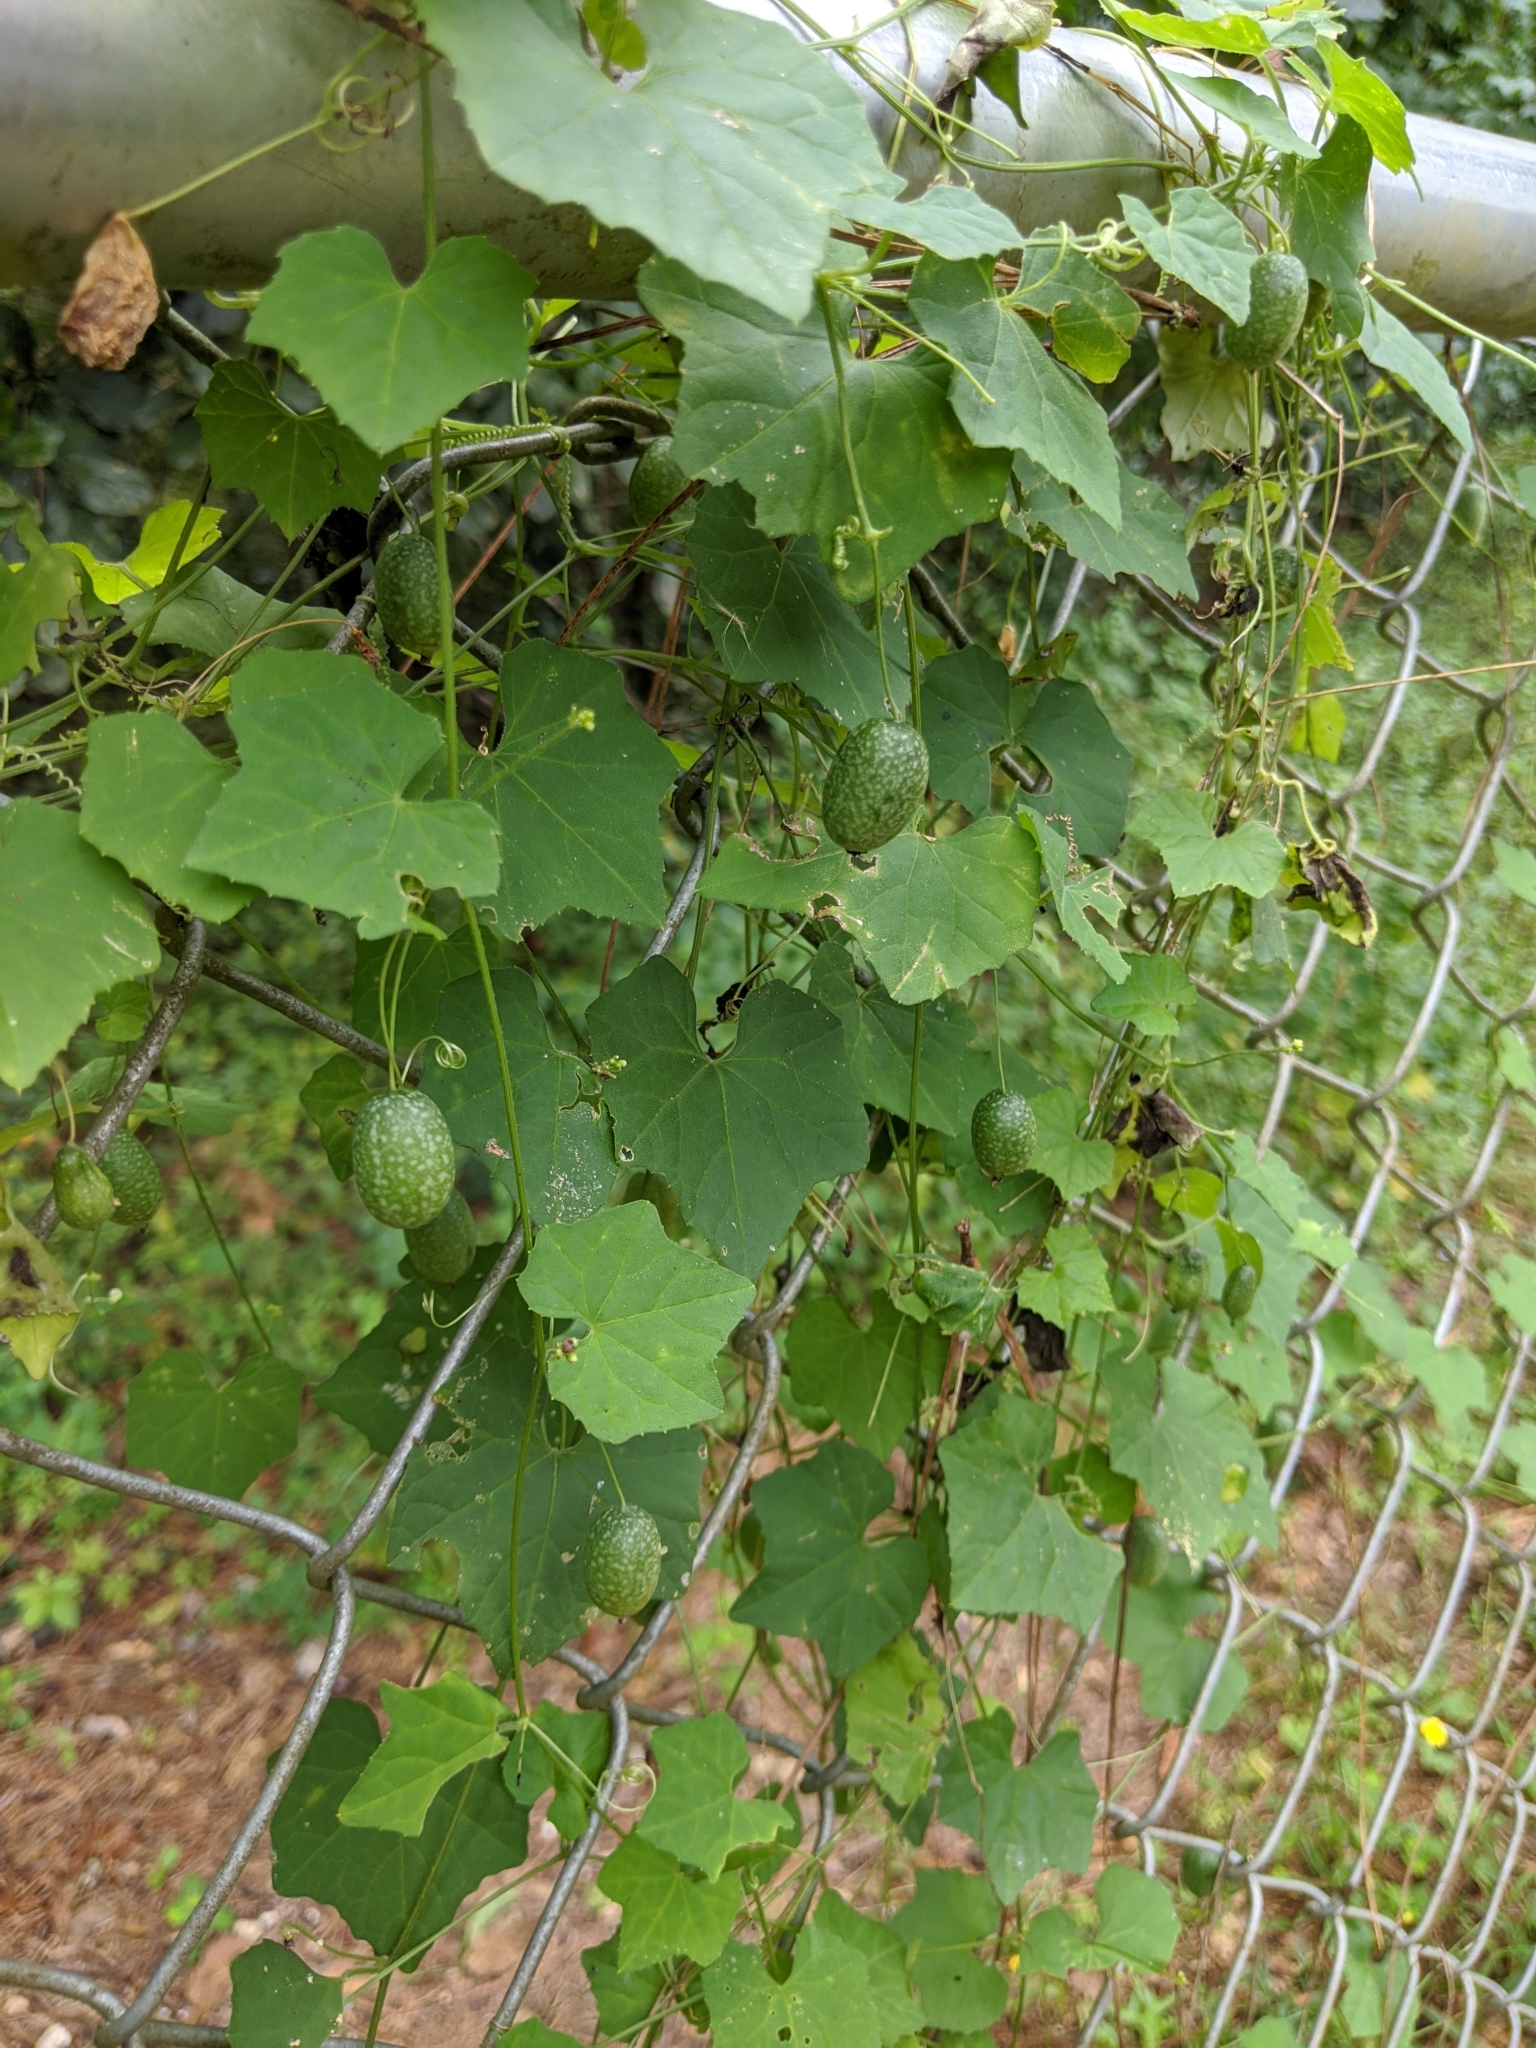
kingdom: Plantae
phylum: Tracheophyta
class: Magnoliopsida
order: Cucurbitales
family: Cucurbitaceae
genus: Melothria
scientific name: Melothria pendula
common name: Creeping-cucumber
